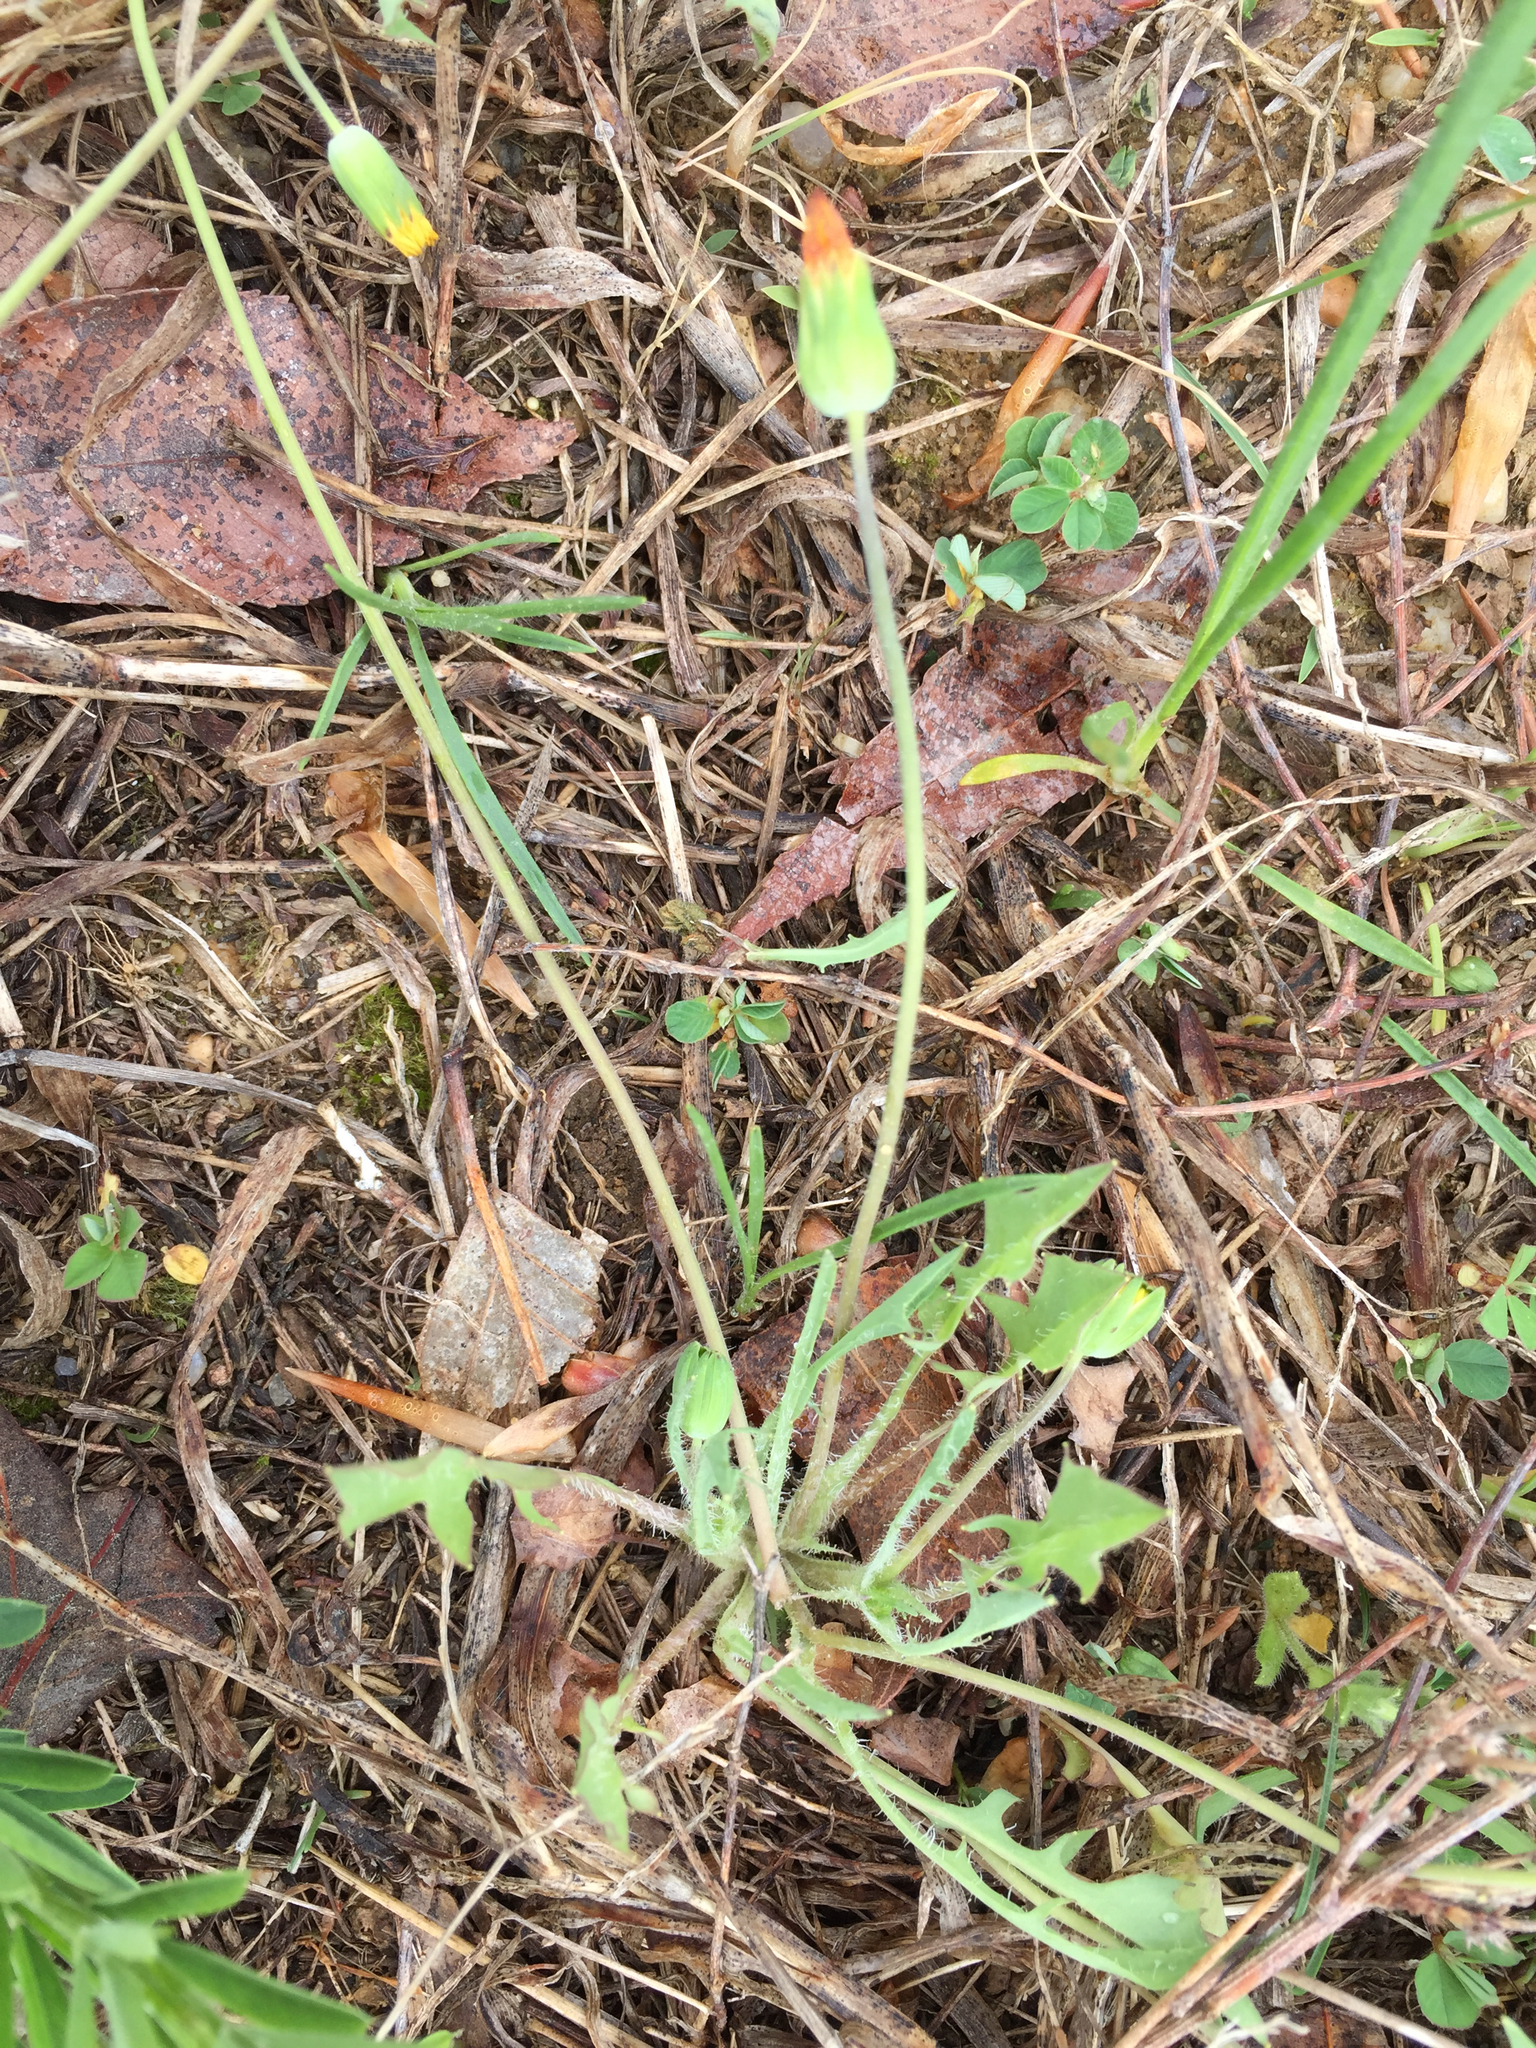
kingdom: Plantae
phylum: Tracheophyta
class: Magnoliopsida
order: Asterales
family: Asteraceae
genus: Krigia
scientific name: Krigia virginica
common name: Virginia dwarf-dandelion
